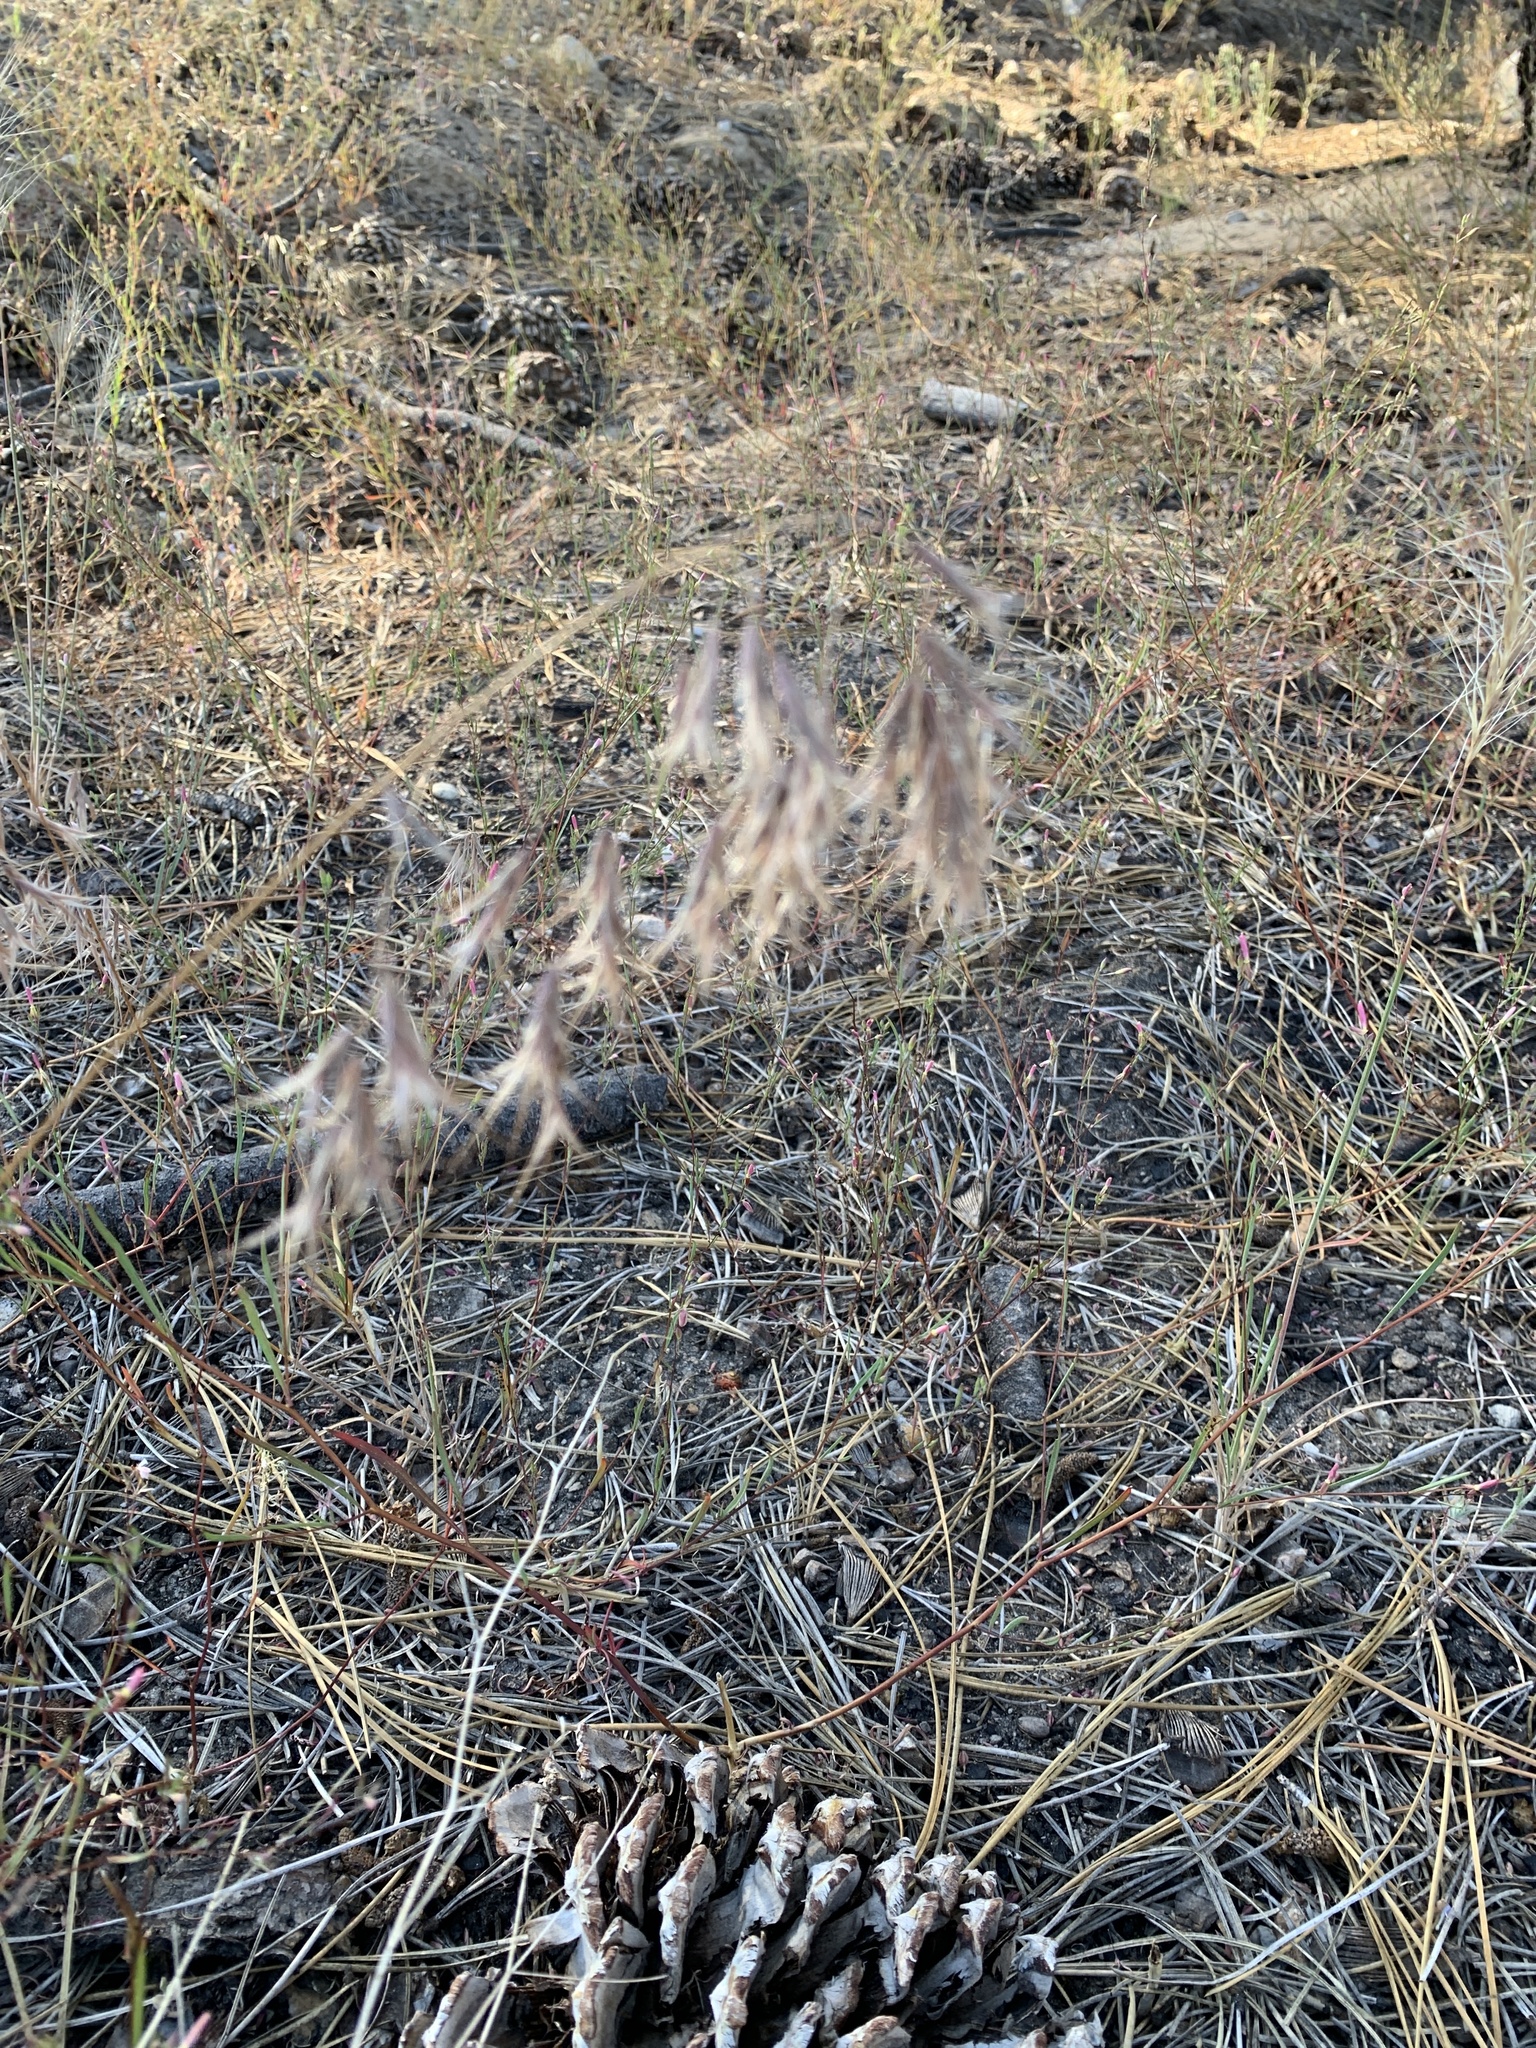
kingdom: Plantae
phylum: Tracheophyta
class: Liliopsida
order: Poales
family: Poaceae
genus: Bromus
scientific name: Bromus tectorum
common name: Cheatgrass
